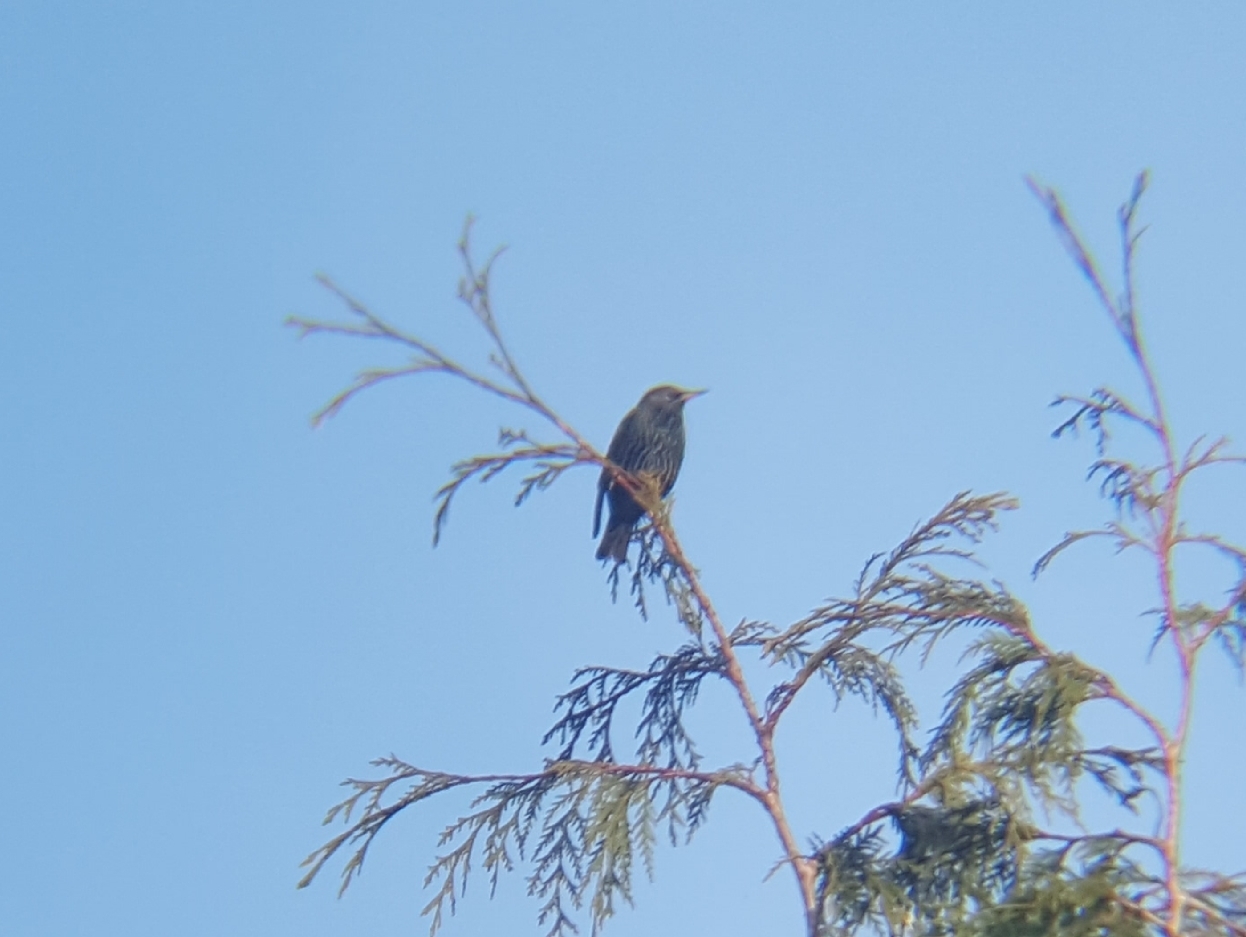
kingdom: Animalia
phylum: Chordata
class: Aves
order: Passeriformes
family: Sturnidae
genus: Sturnus
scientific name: Sturnus vulgaris
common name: Common starling
